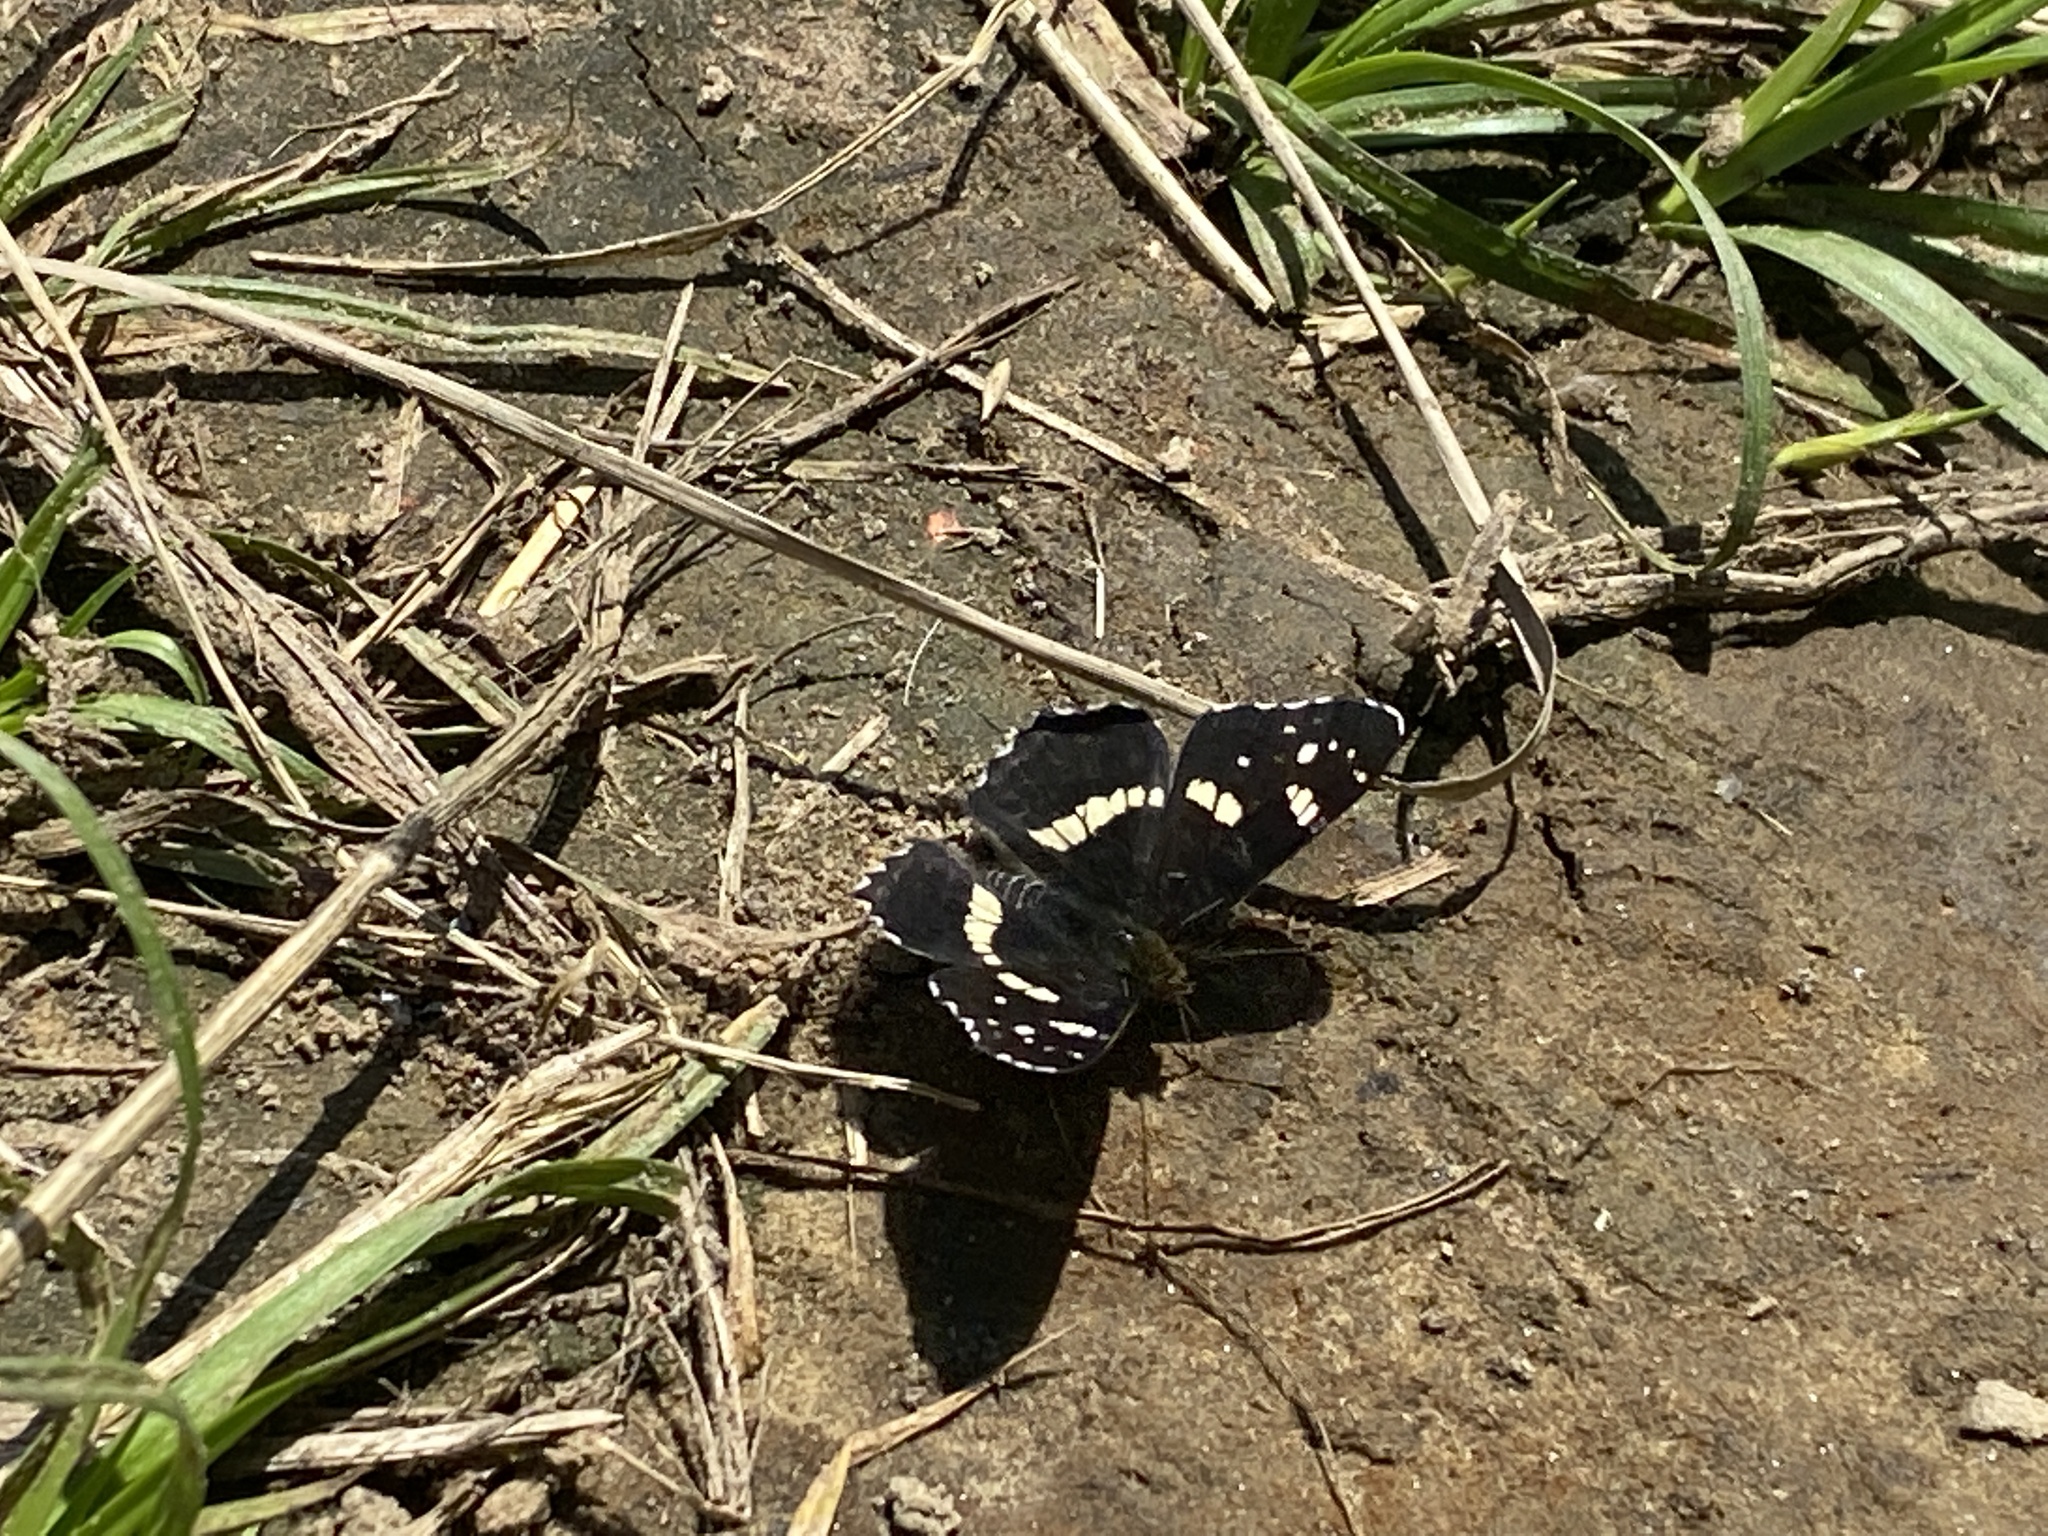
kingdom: Animalia
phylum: Arthropoda
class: Insecta
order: Lepidoptera
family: Nymphalidae
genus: Araschnia
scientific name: Araschnia levana
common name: Map butterfly
